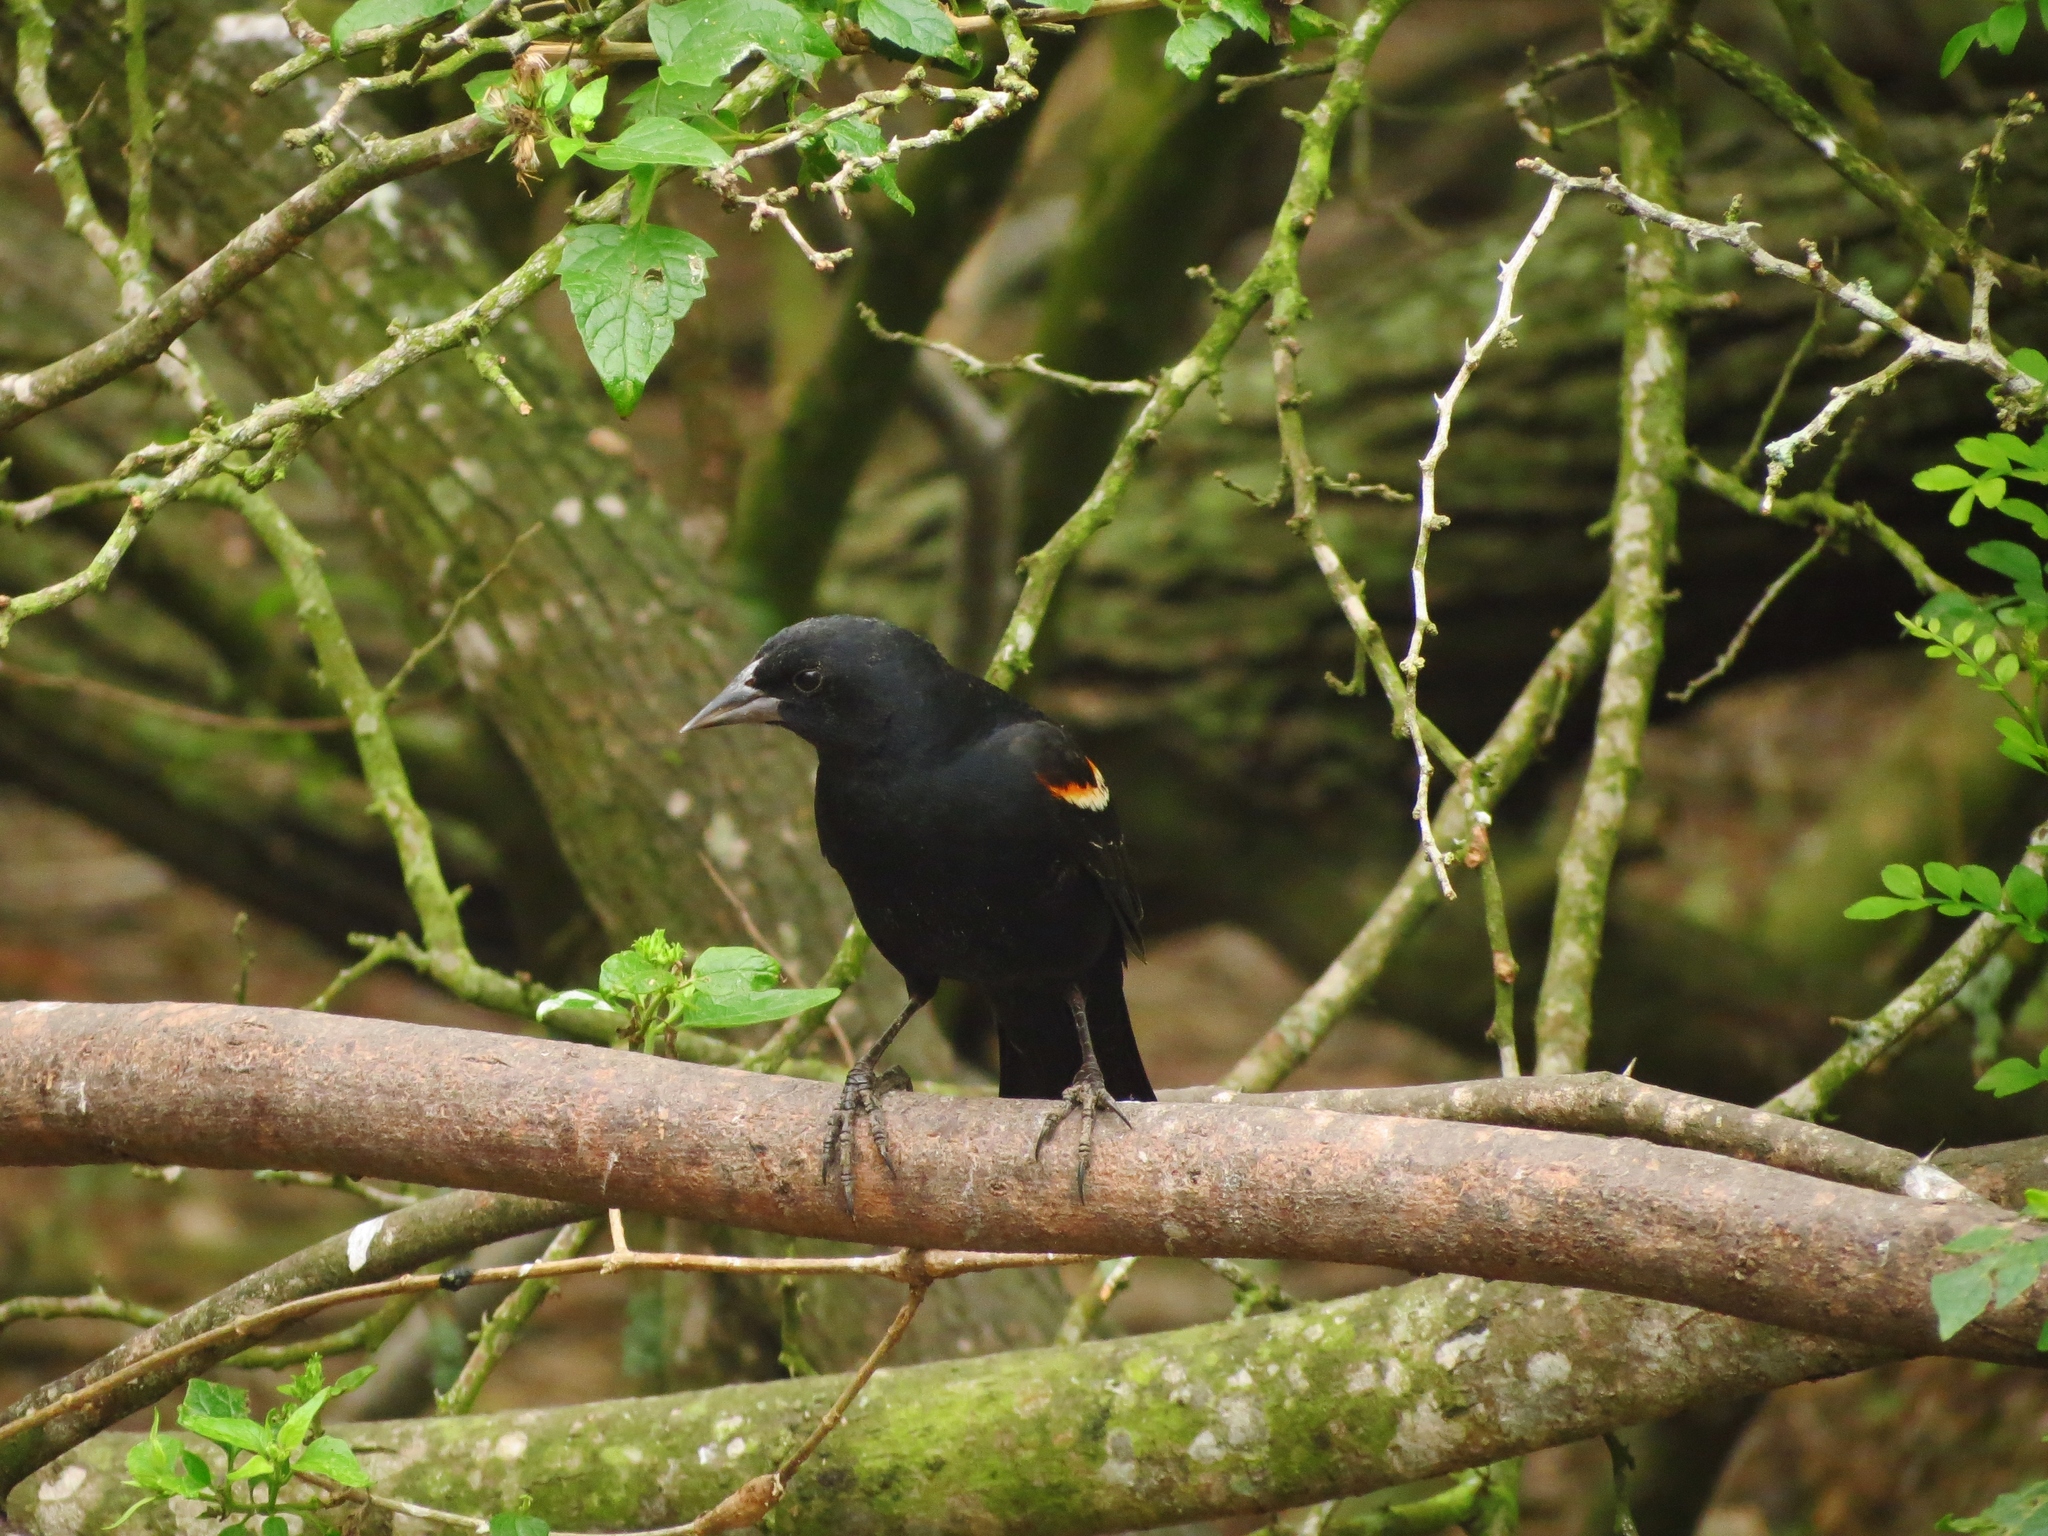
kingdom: Animalia
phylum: Chordata
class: Aves
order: Passeriformes
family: Icteridae
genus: Agelaius
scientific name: Agelaius phoeniceus
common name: Red-winged blackbird
